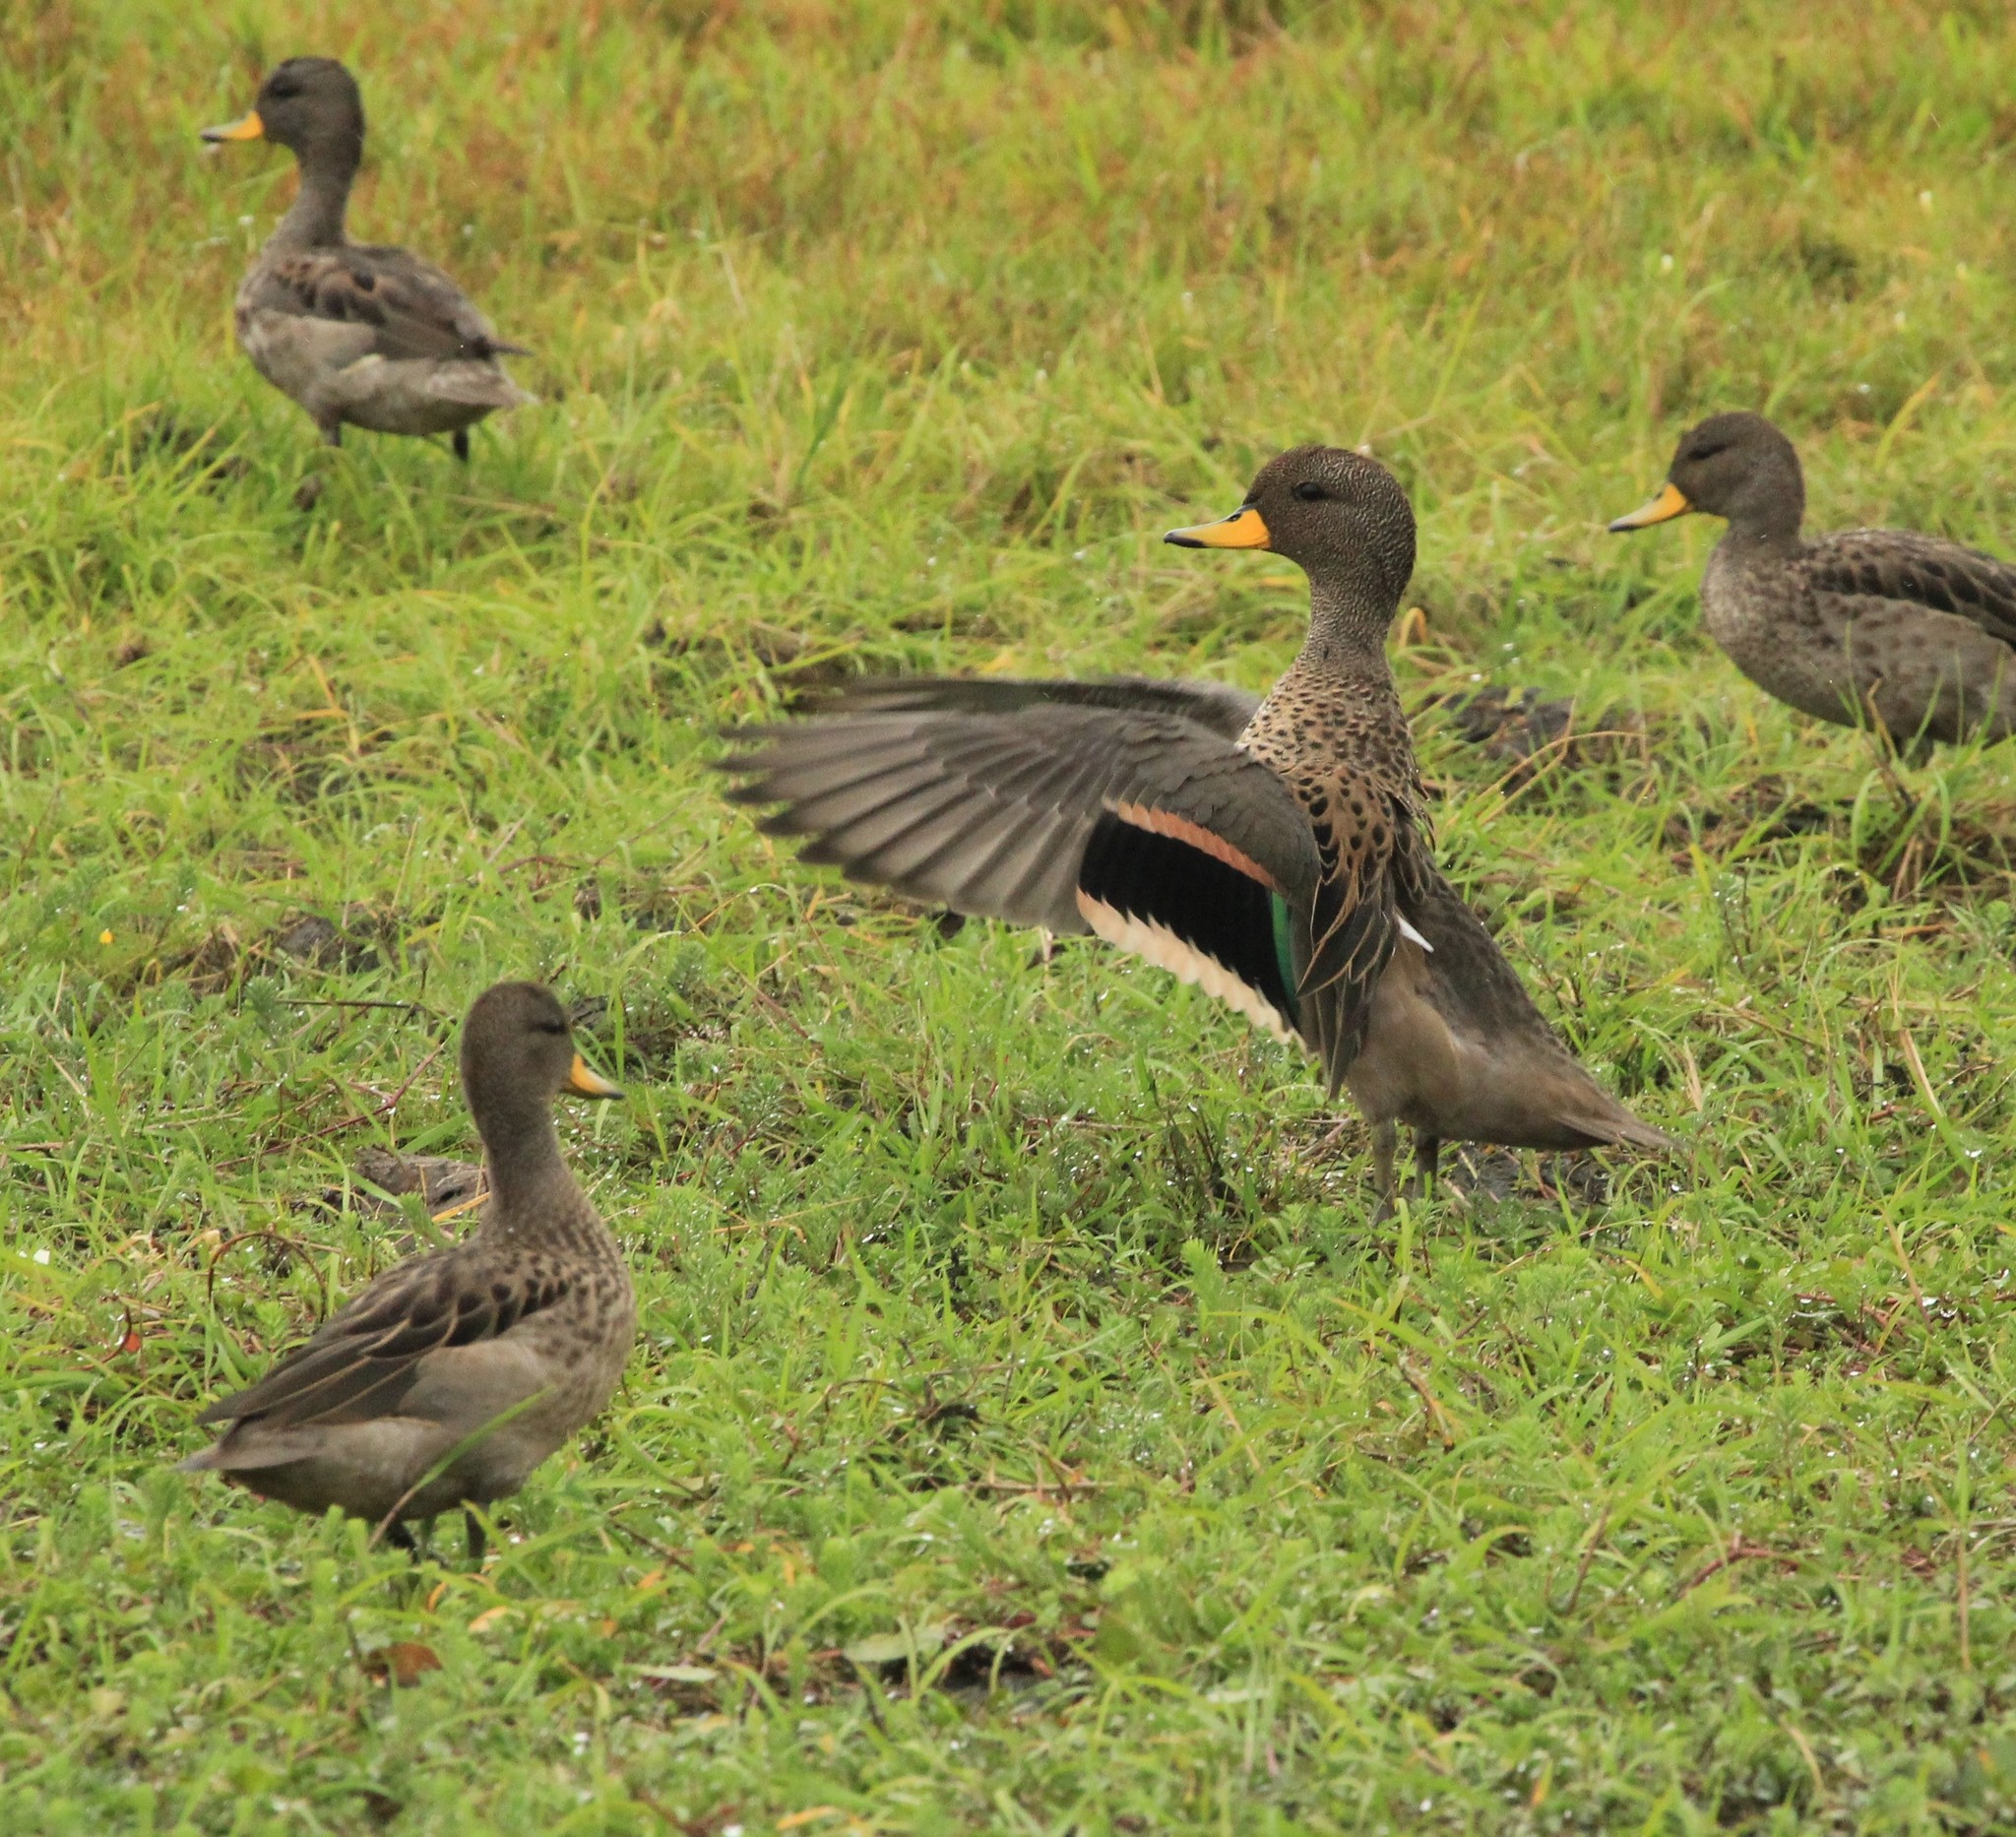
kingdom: Animalia
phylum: Chordata
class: Aves
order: Anseriformes
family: Anatidae
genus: Anas
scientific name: Anas flavirostris
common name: Yellow-billed teal
